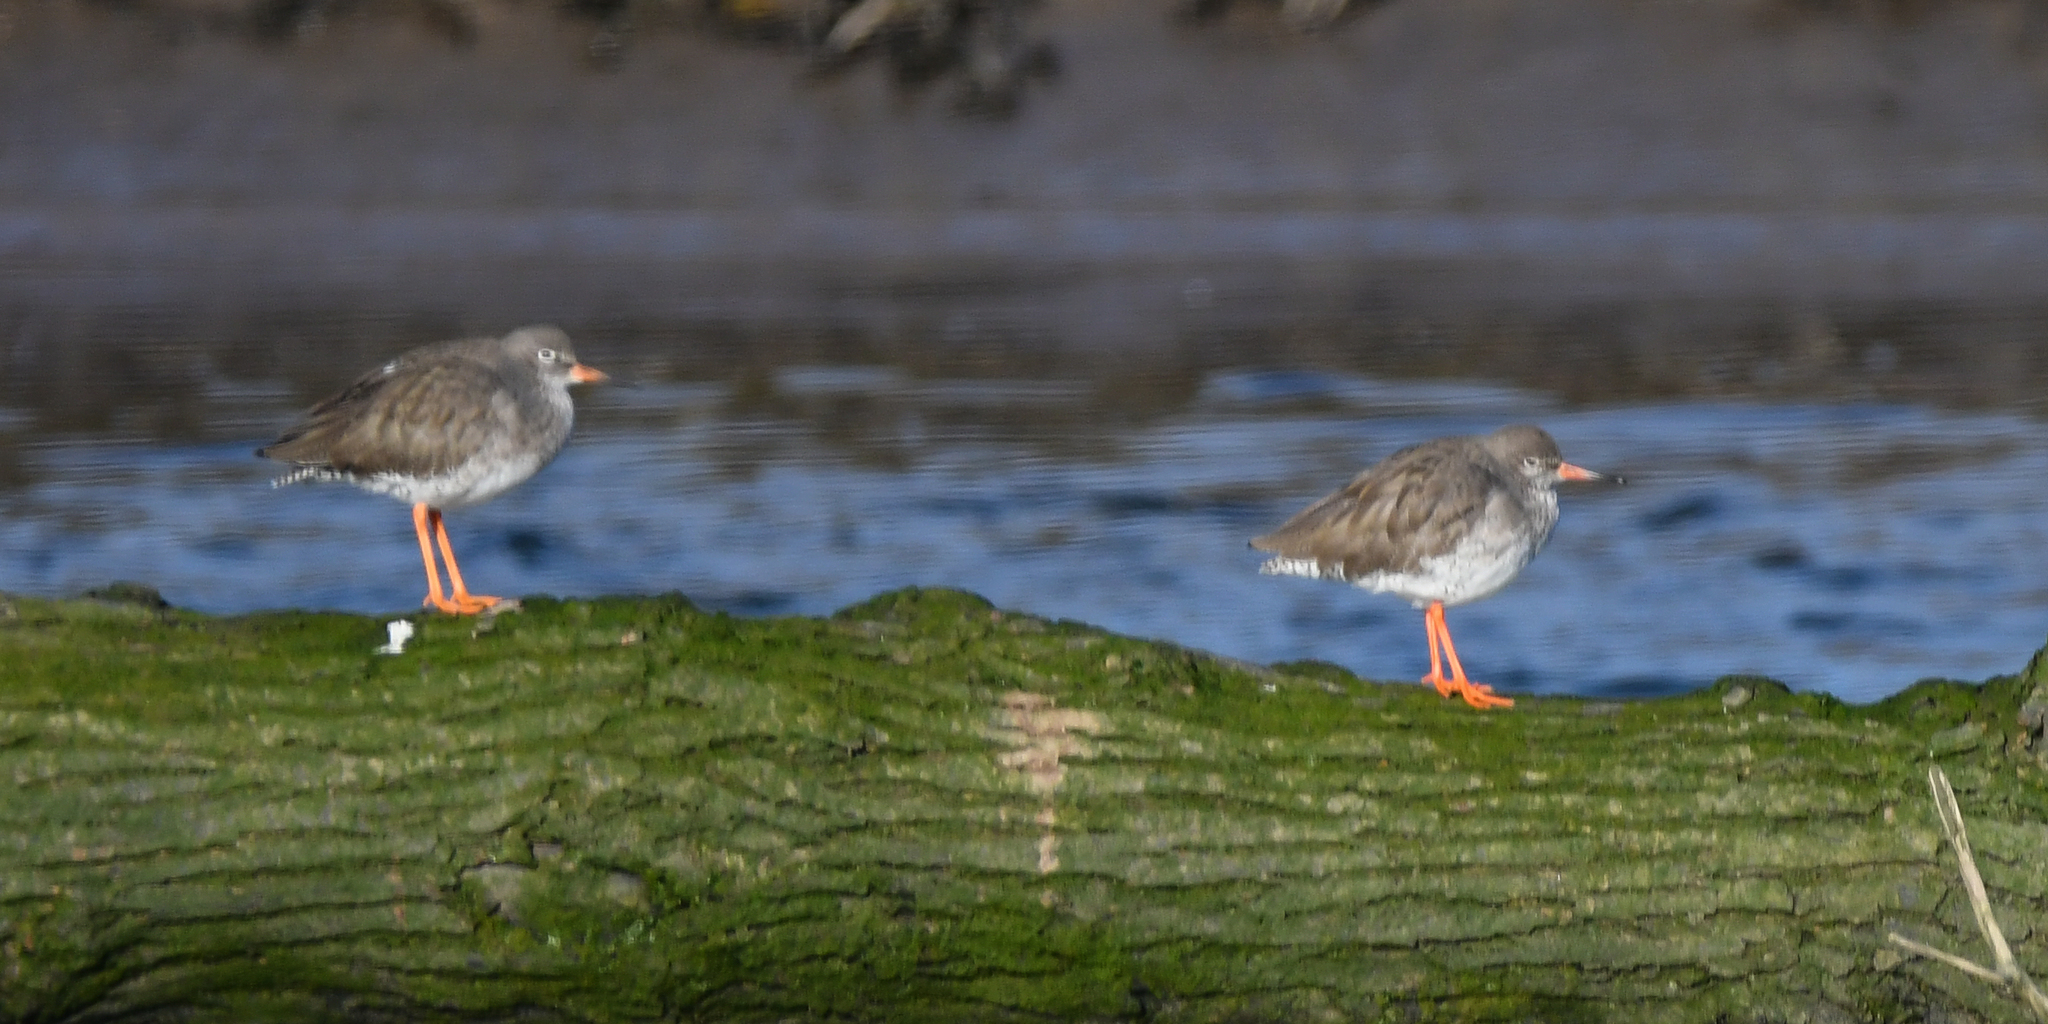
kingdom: Animalia
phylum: Chordata
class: Aves
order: Charadriiformes
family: Scolopacidae
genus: Tringa
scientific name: Tringa totanus
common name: Common redshank
